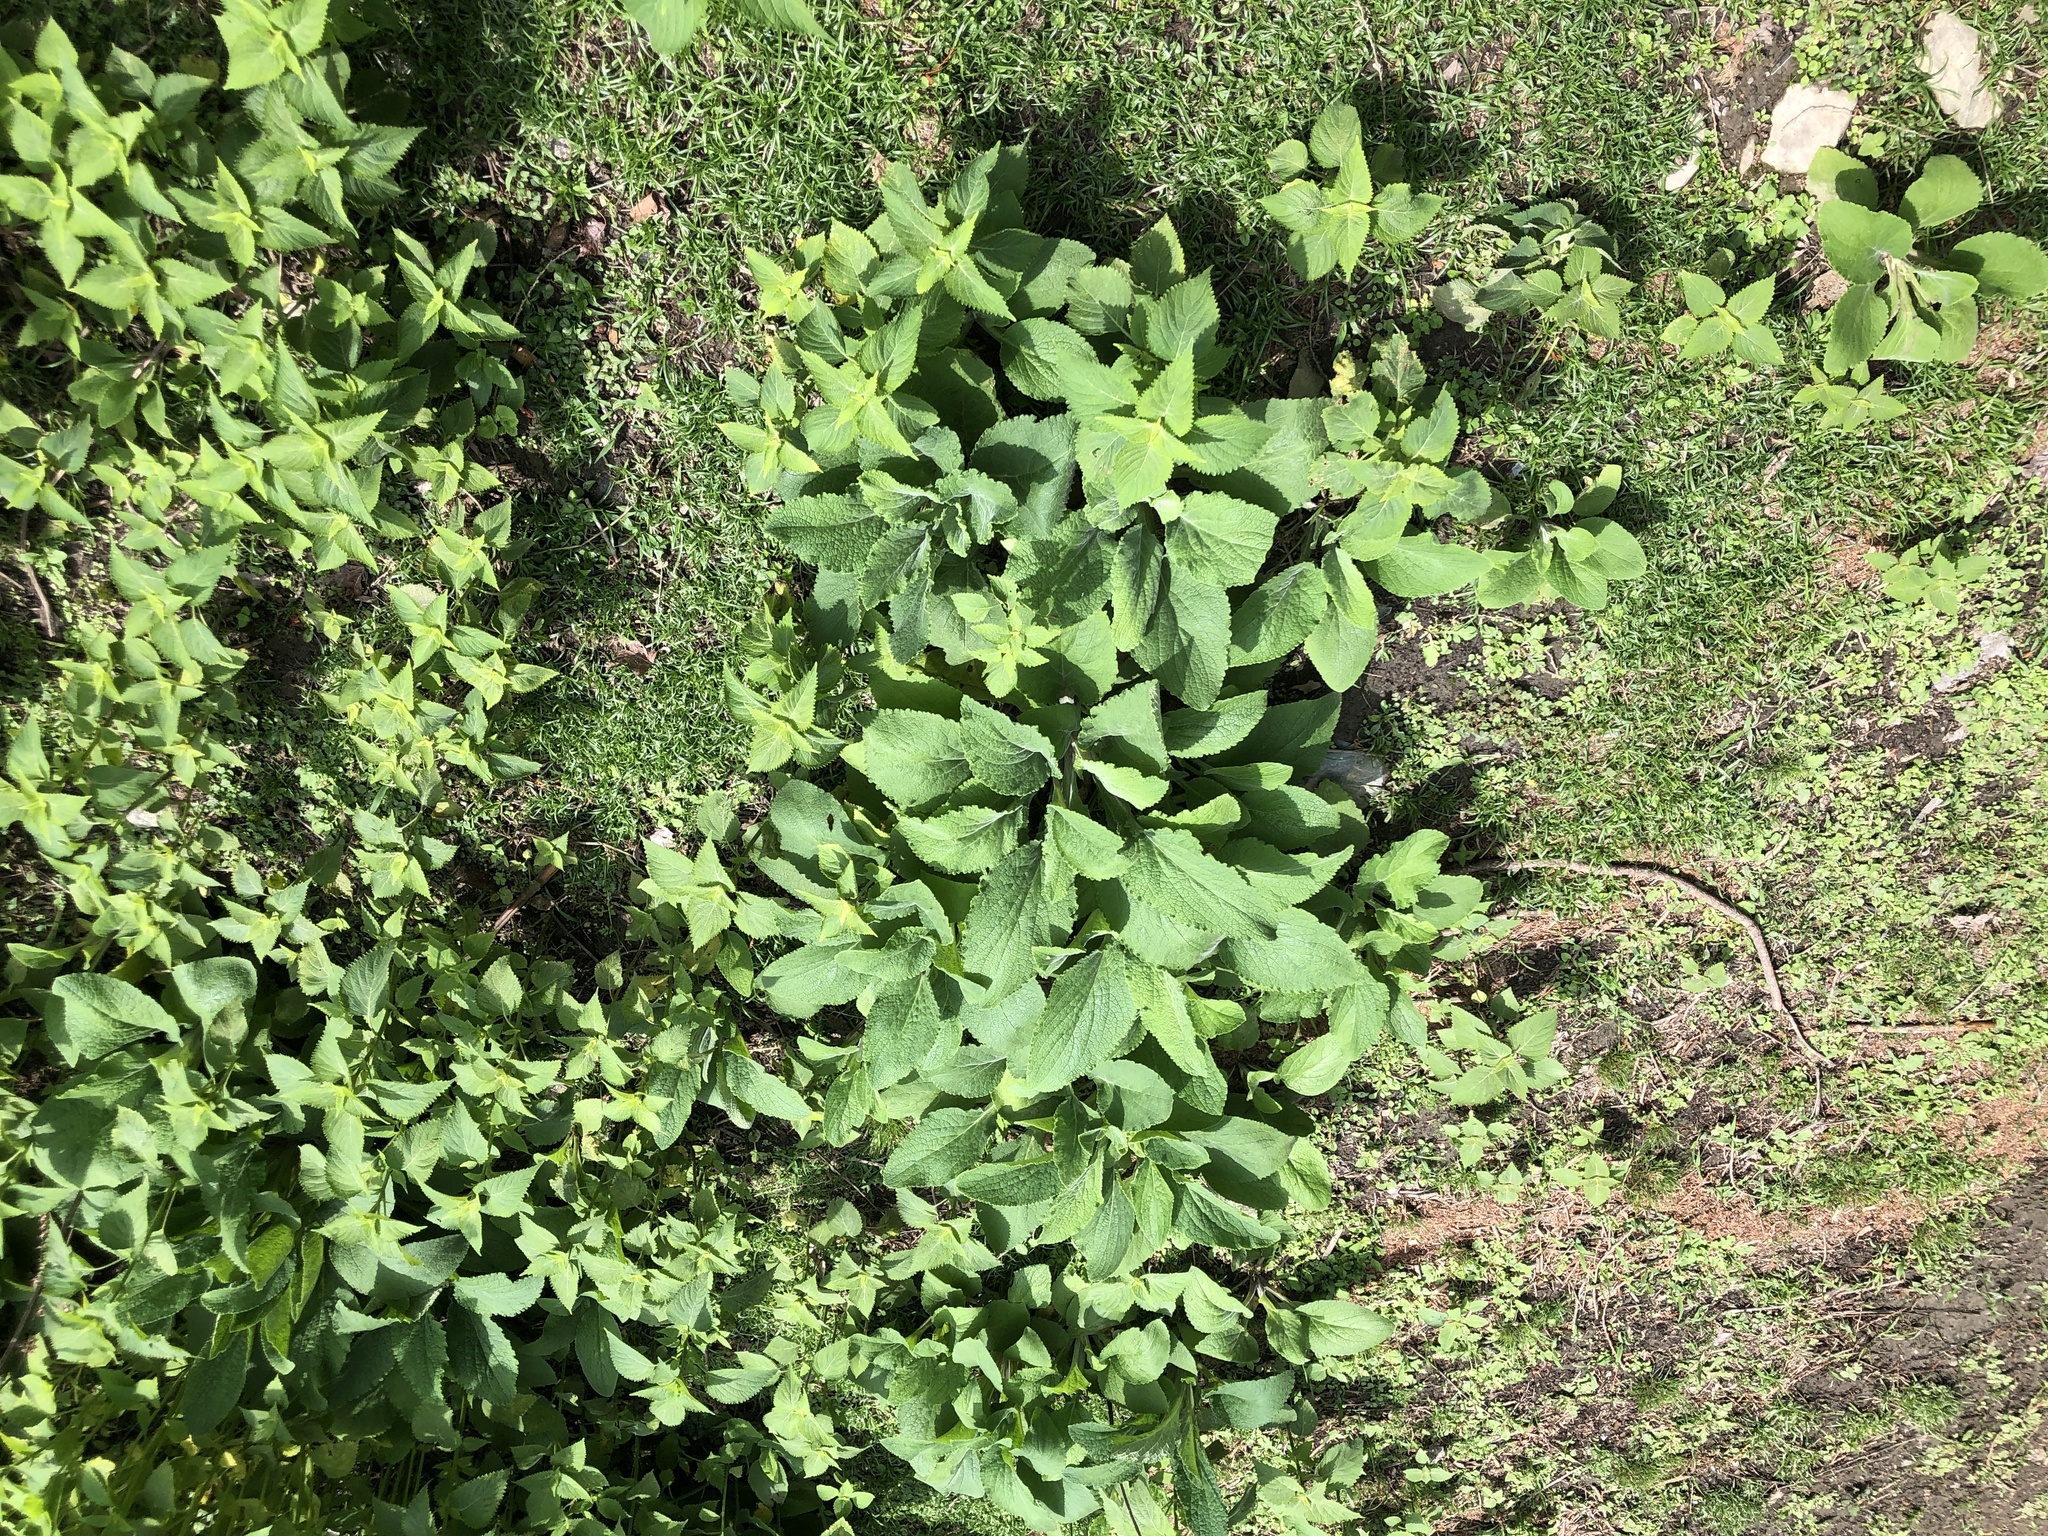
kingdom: Plantae
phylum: Tracheophyta
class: Magnoliopsida
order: Lamiales
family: Plantaginaceae
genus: Digitalis
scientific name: Digitalis purpurea
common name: Foxglove
